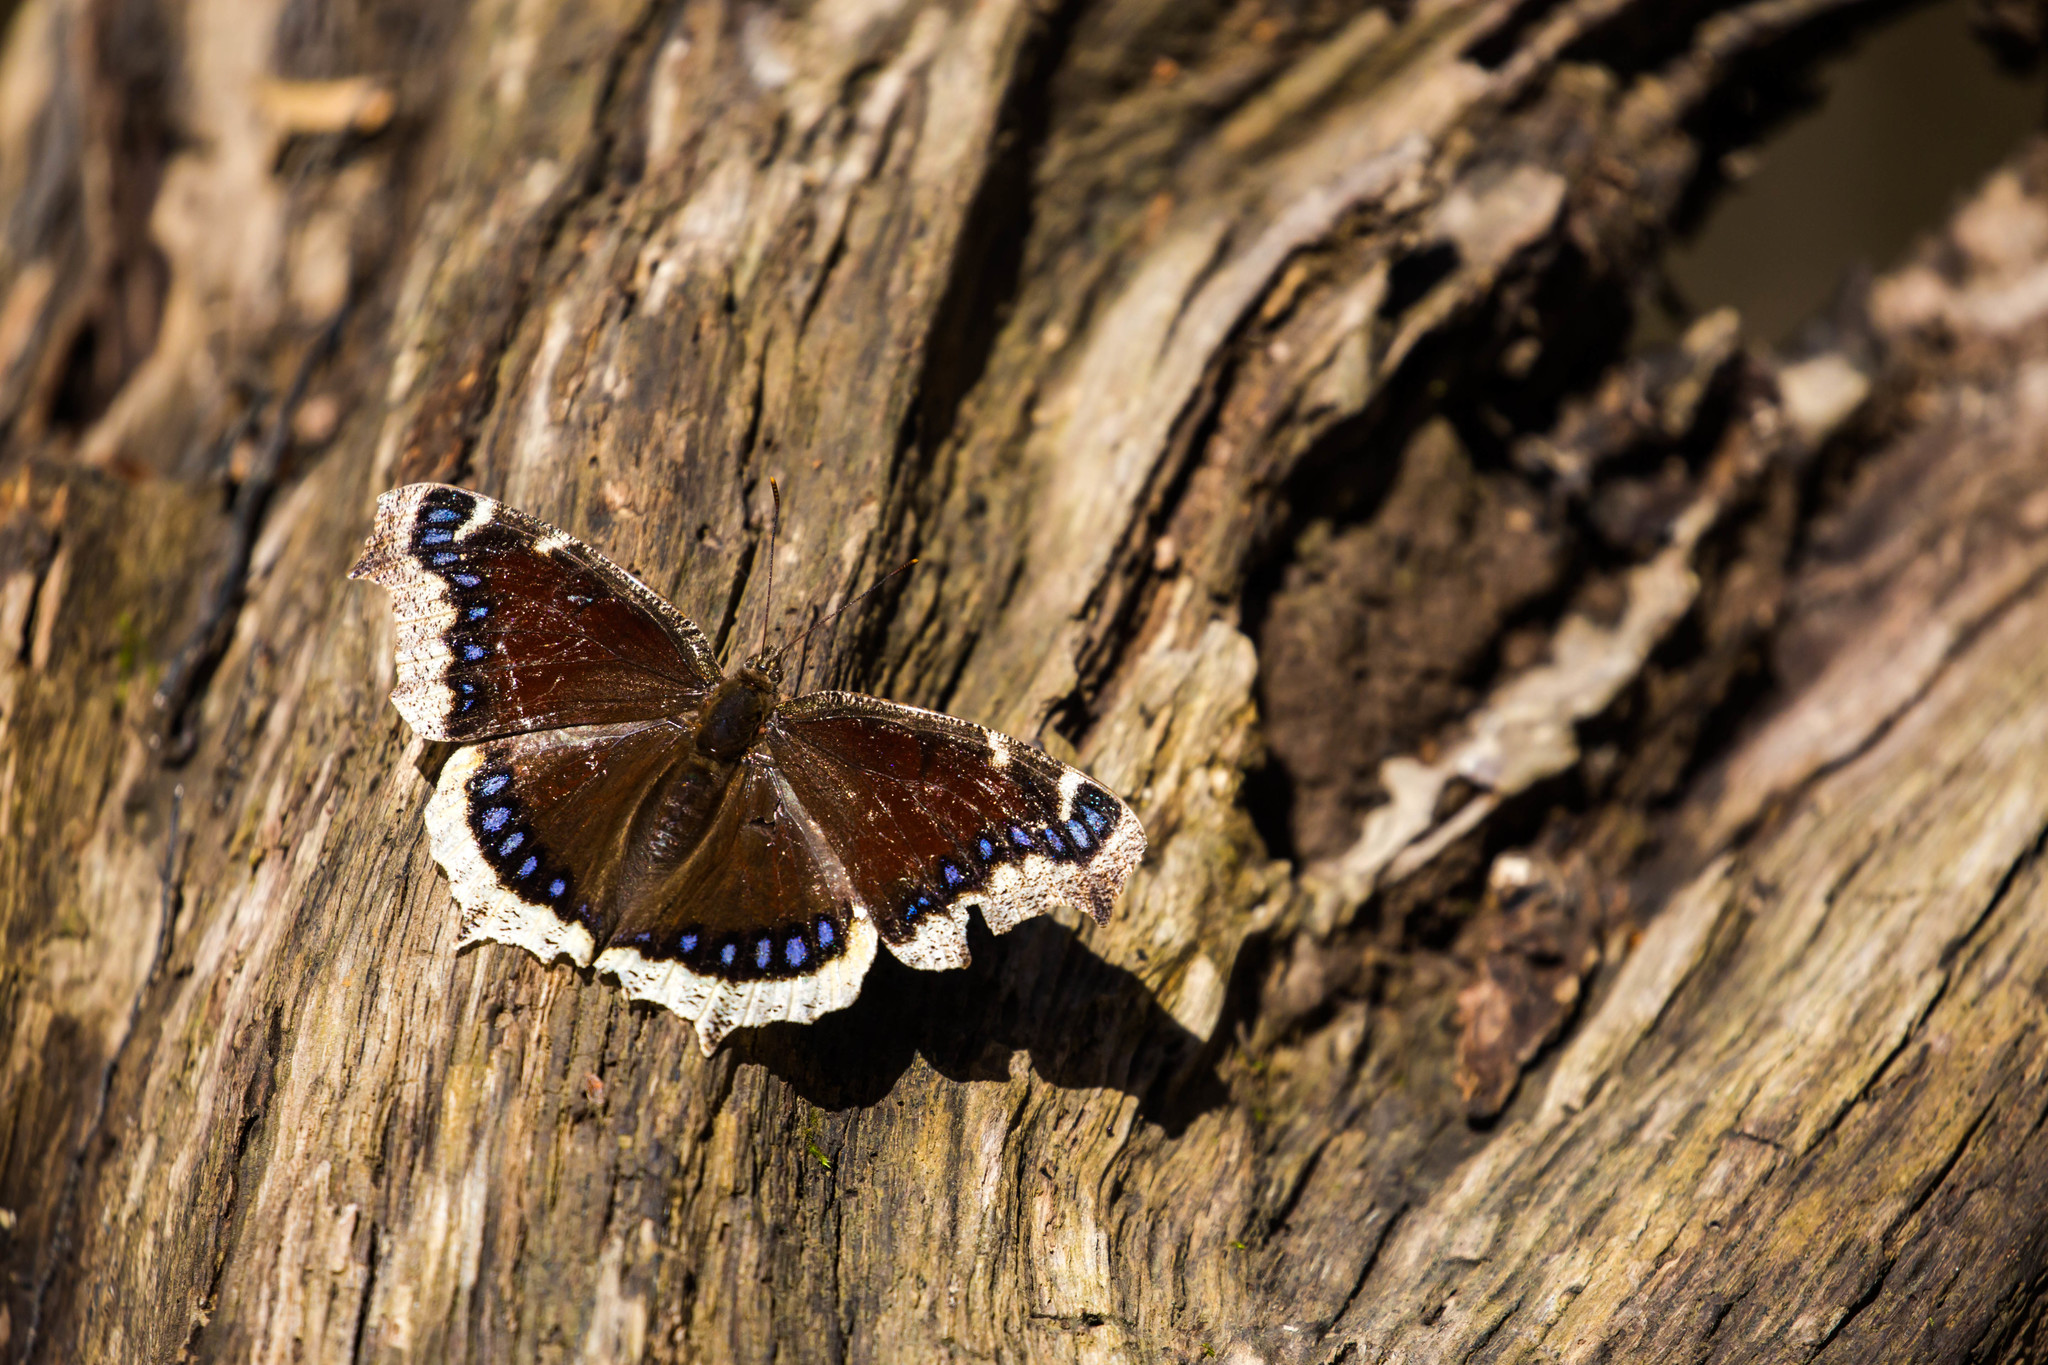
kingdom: Animalia
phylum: Arthropoda
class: Insecta
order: Lepidoptera
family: Nymphalidae
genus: Nymphalis
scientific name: Nymphalis antiopa
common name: Camberwell beauty
